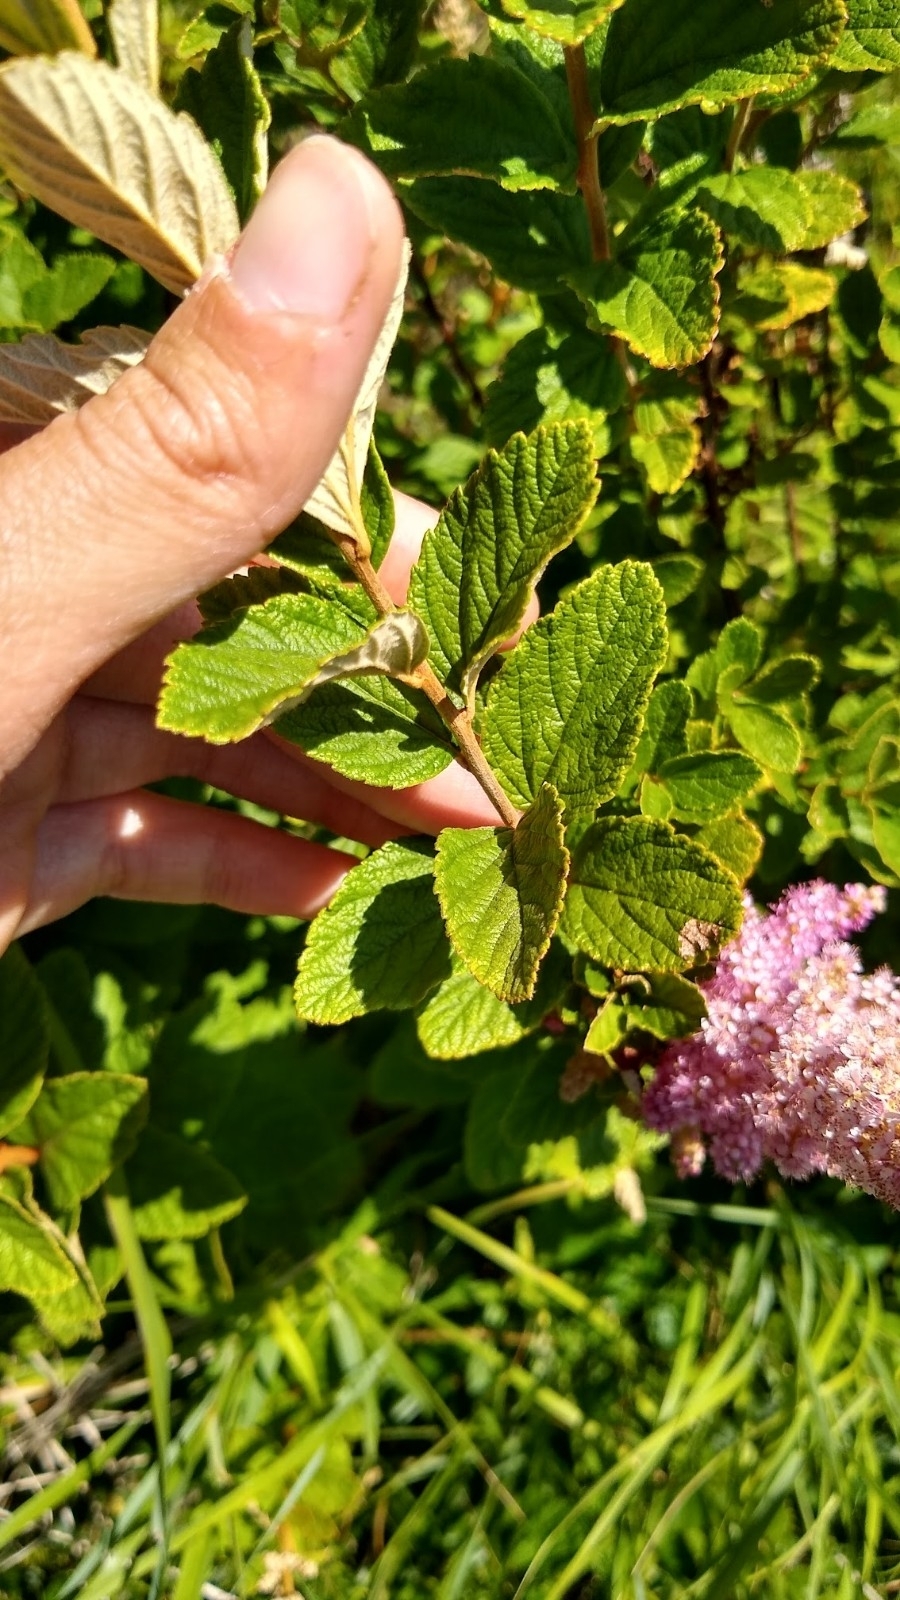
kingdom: Plantae
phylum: Tracheophyta
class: Magnoliopsida
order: Rosales
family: Rosaceae
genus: Spiraea
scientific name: Spiraea tomentosa
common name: Hardhack
